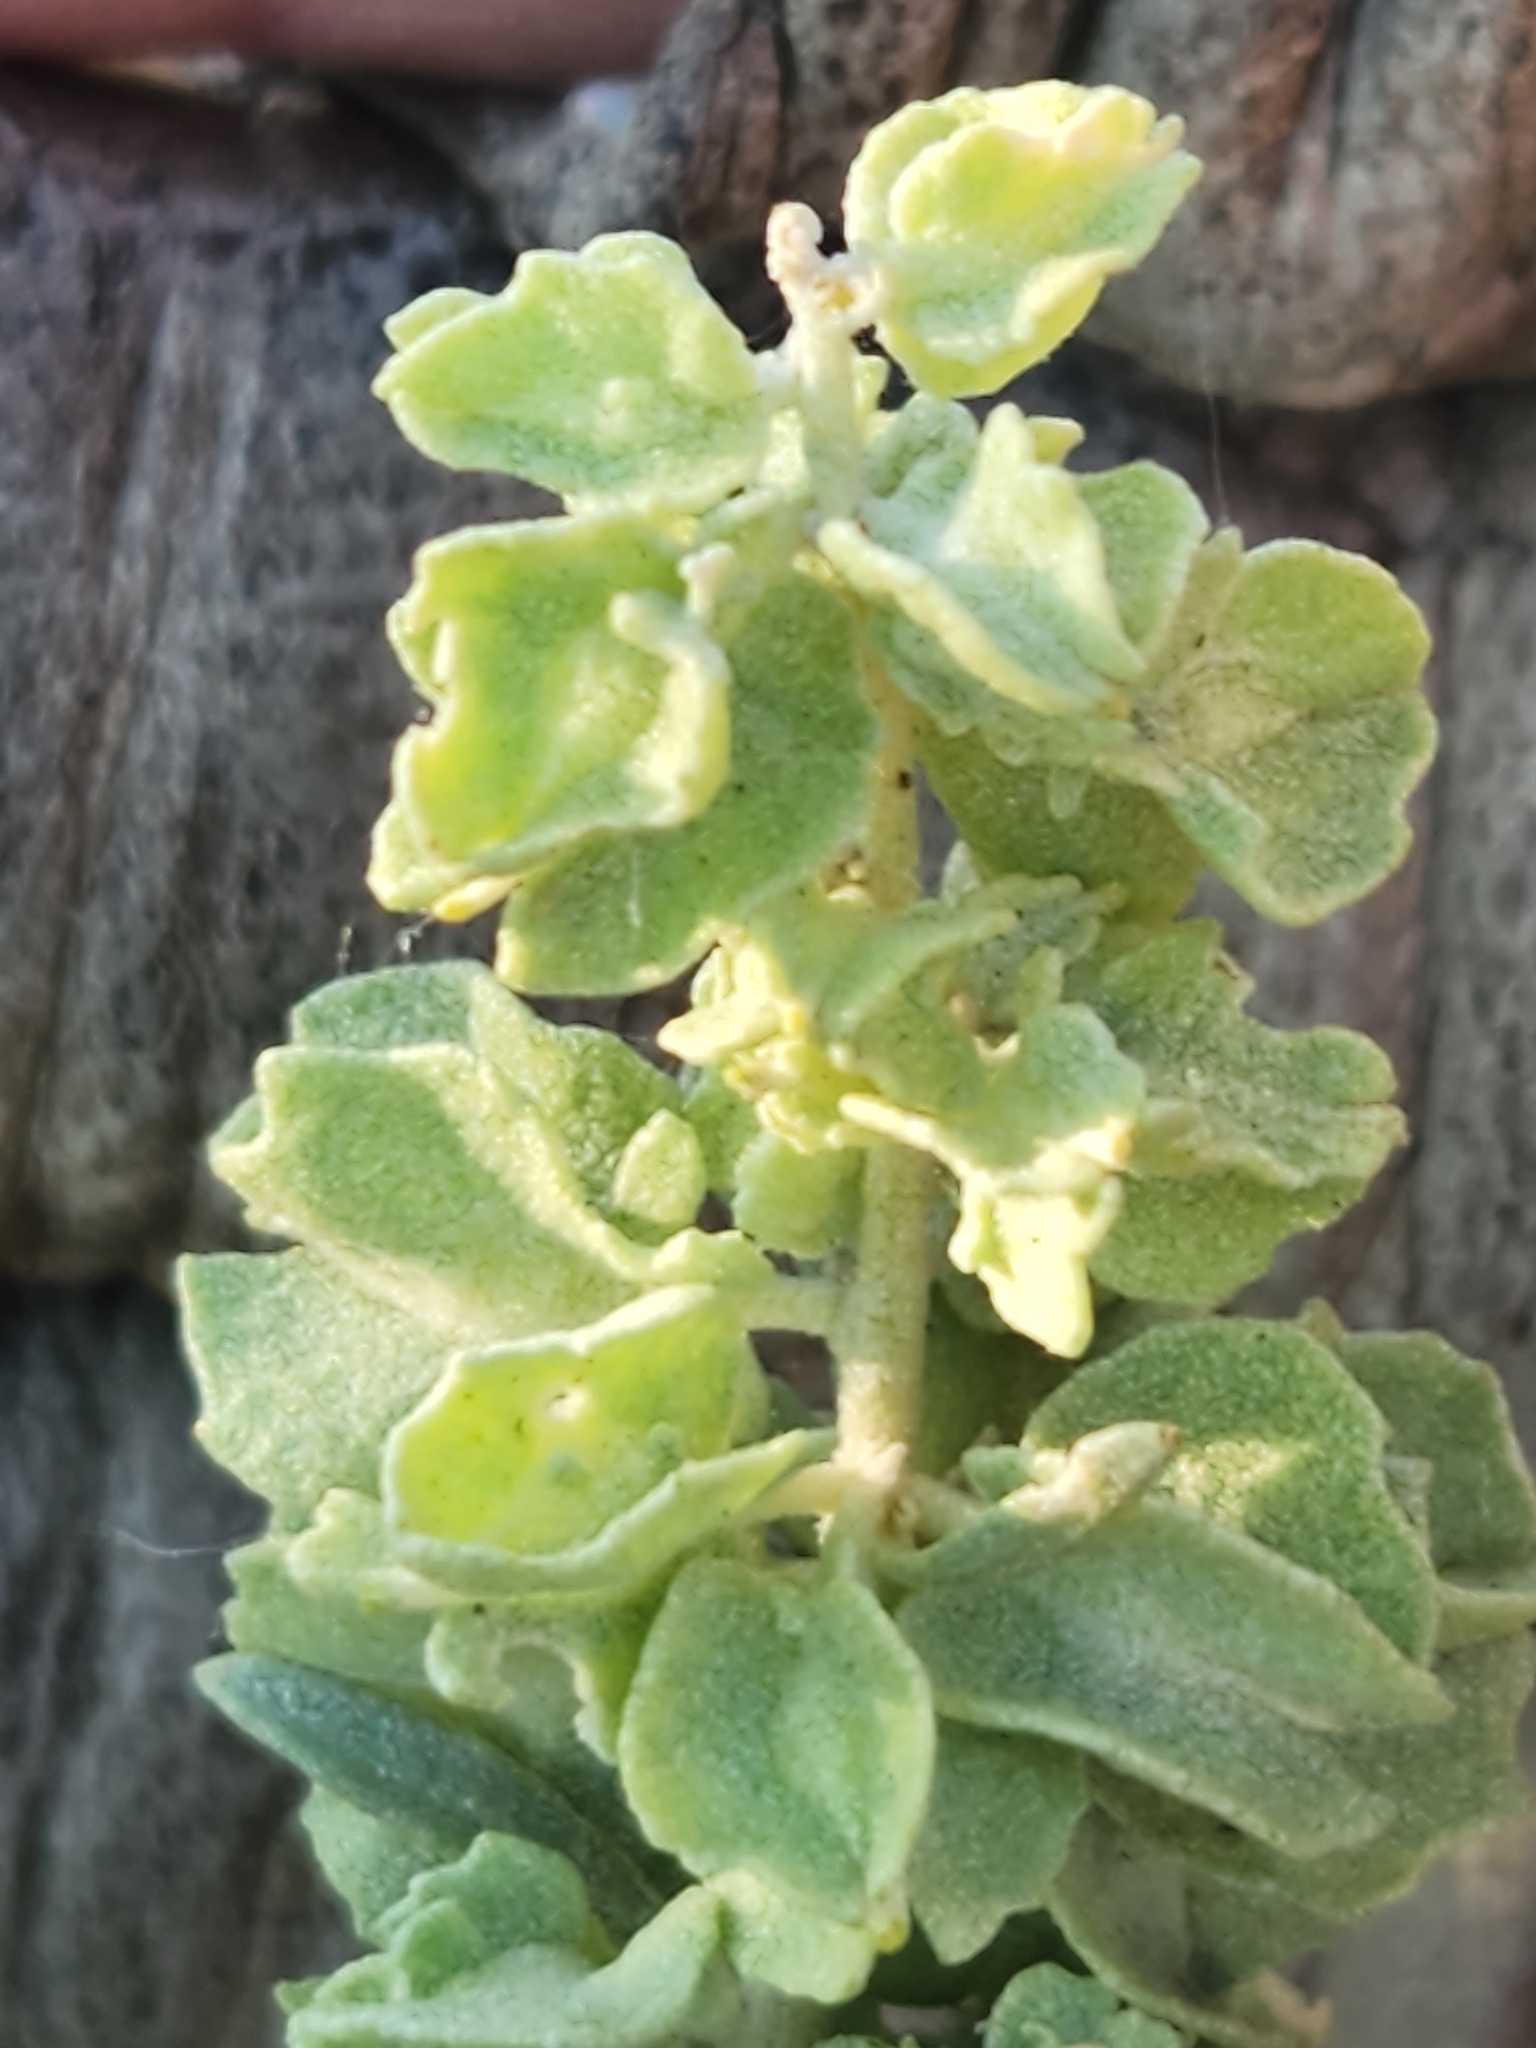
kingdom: Plantae
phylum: Tracheophyta
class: Magnoliopsida
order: Caryophyllales
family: Amaranthaceae
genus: Atriplex
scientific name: Atriplex canescens
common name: Four-wing saltbush
